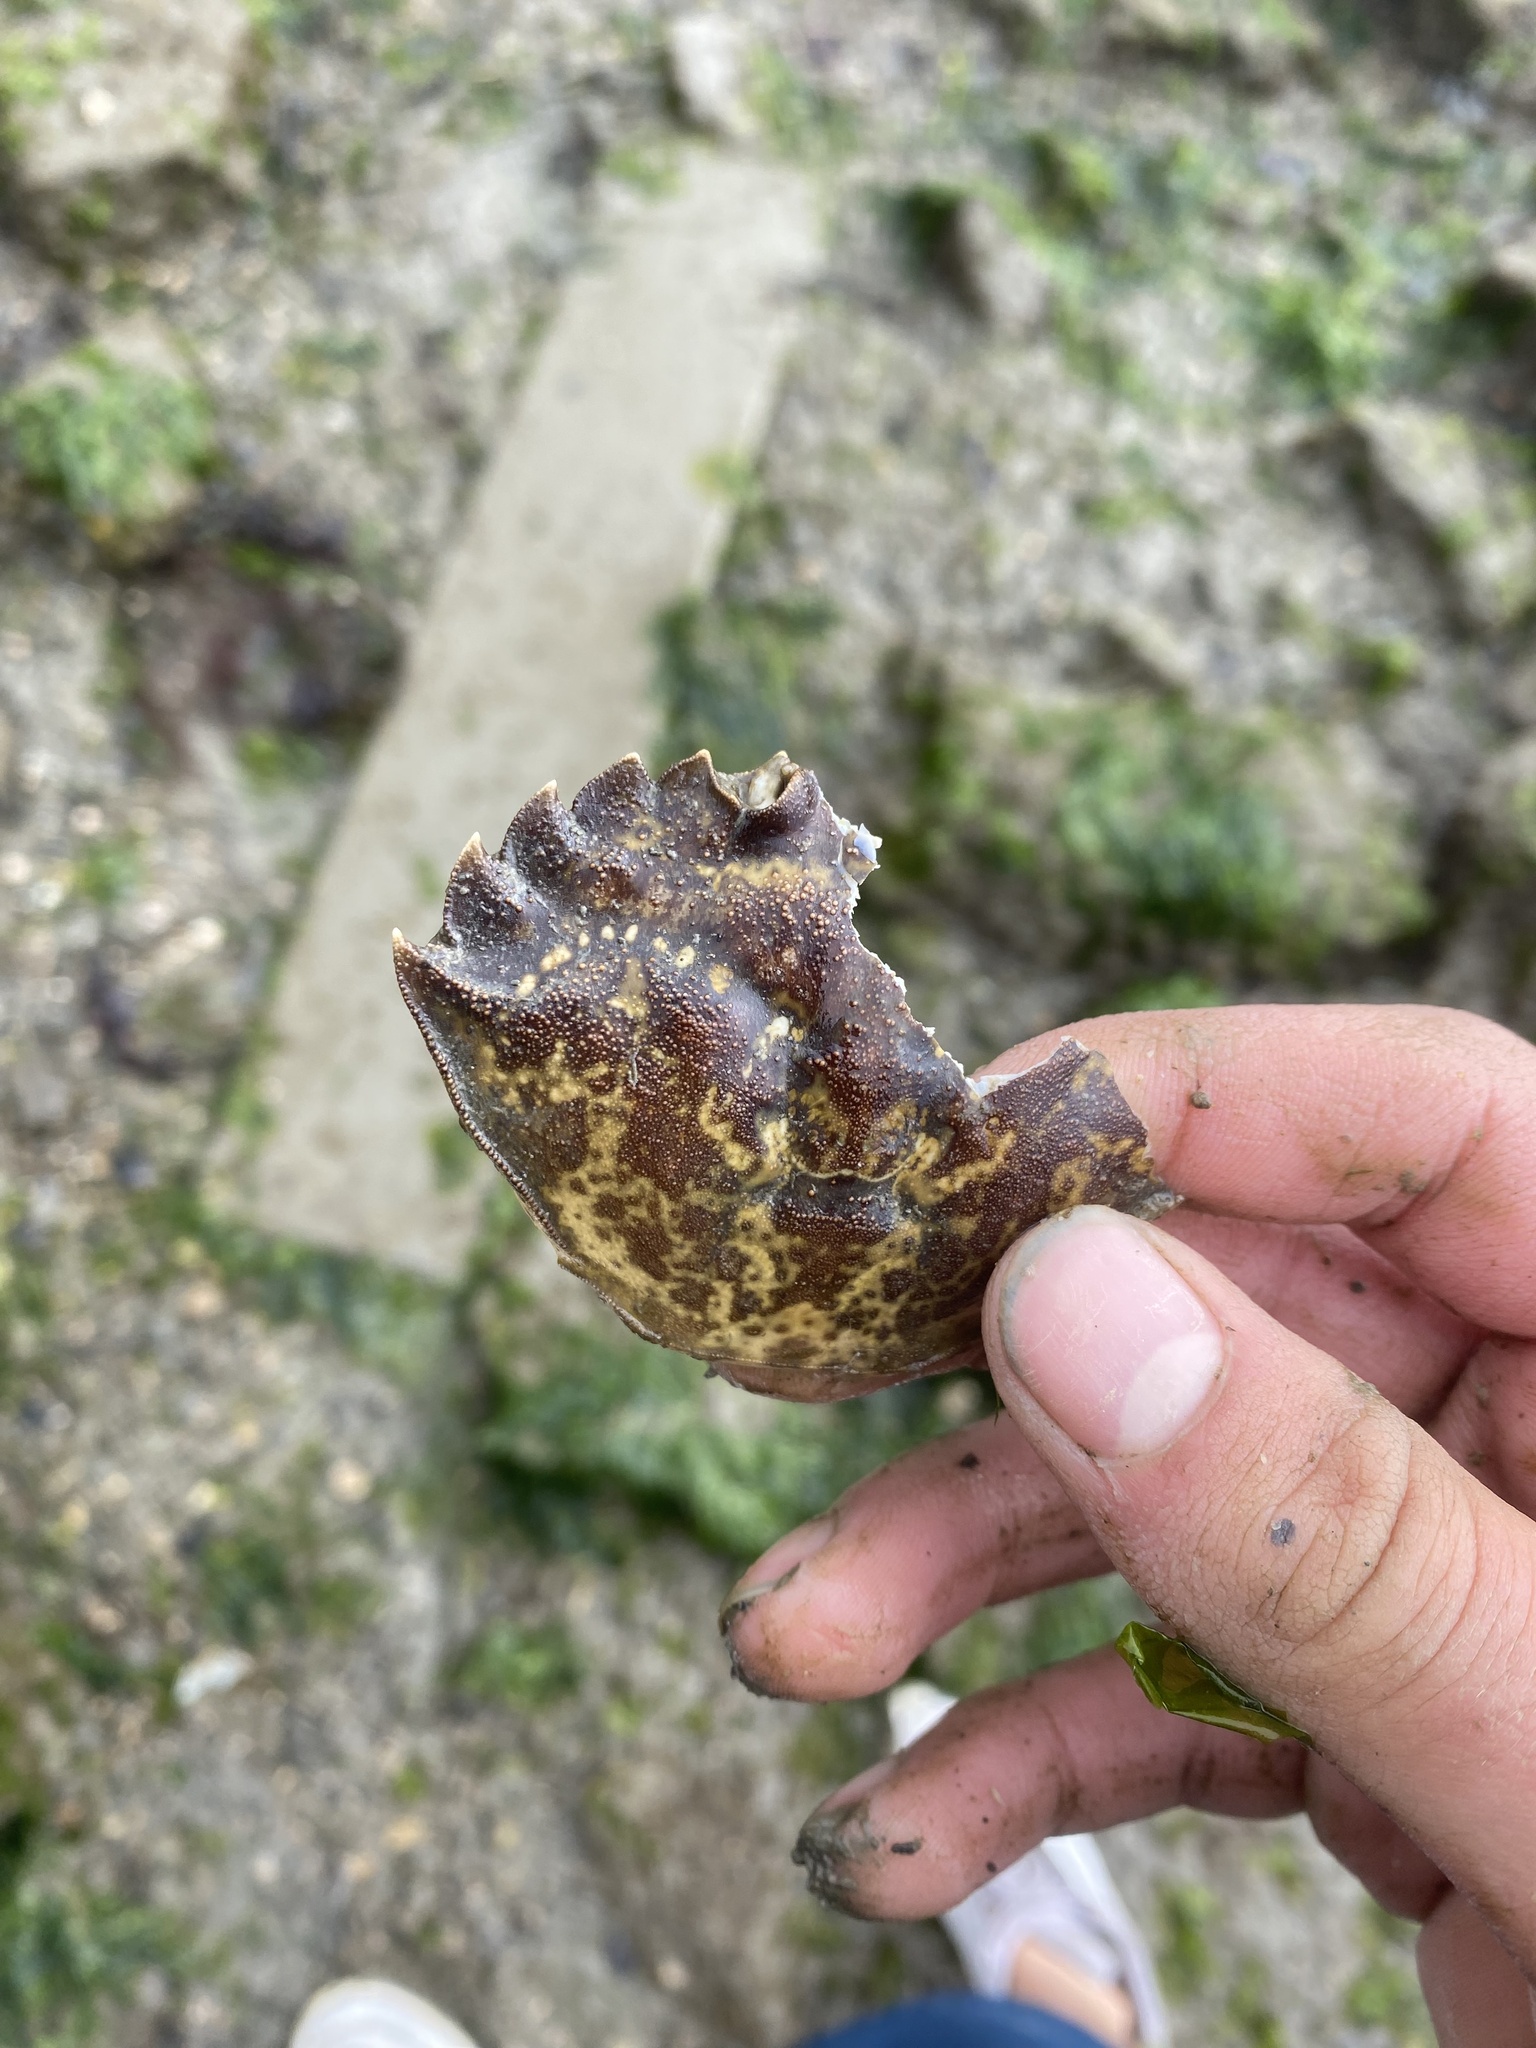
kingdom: Animalia
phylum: Arthropoda
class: Malacostraca
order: Decapoda
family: Carcinidae
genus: Carcinus
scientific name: Carcinus maenas
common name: European green crab
